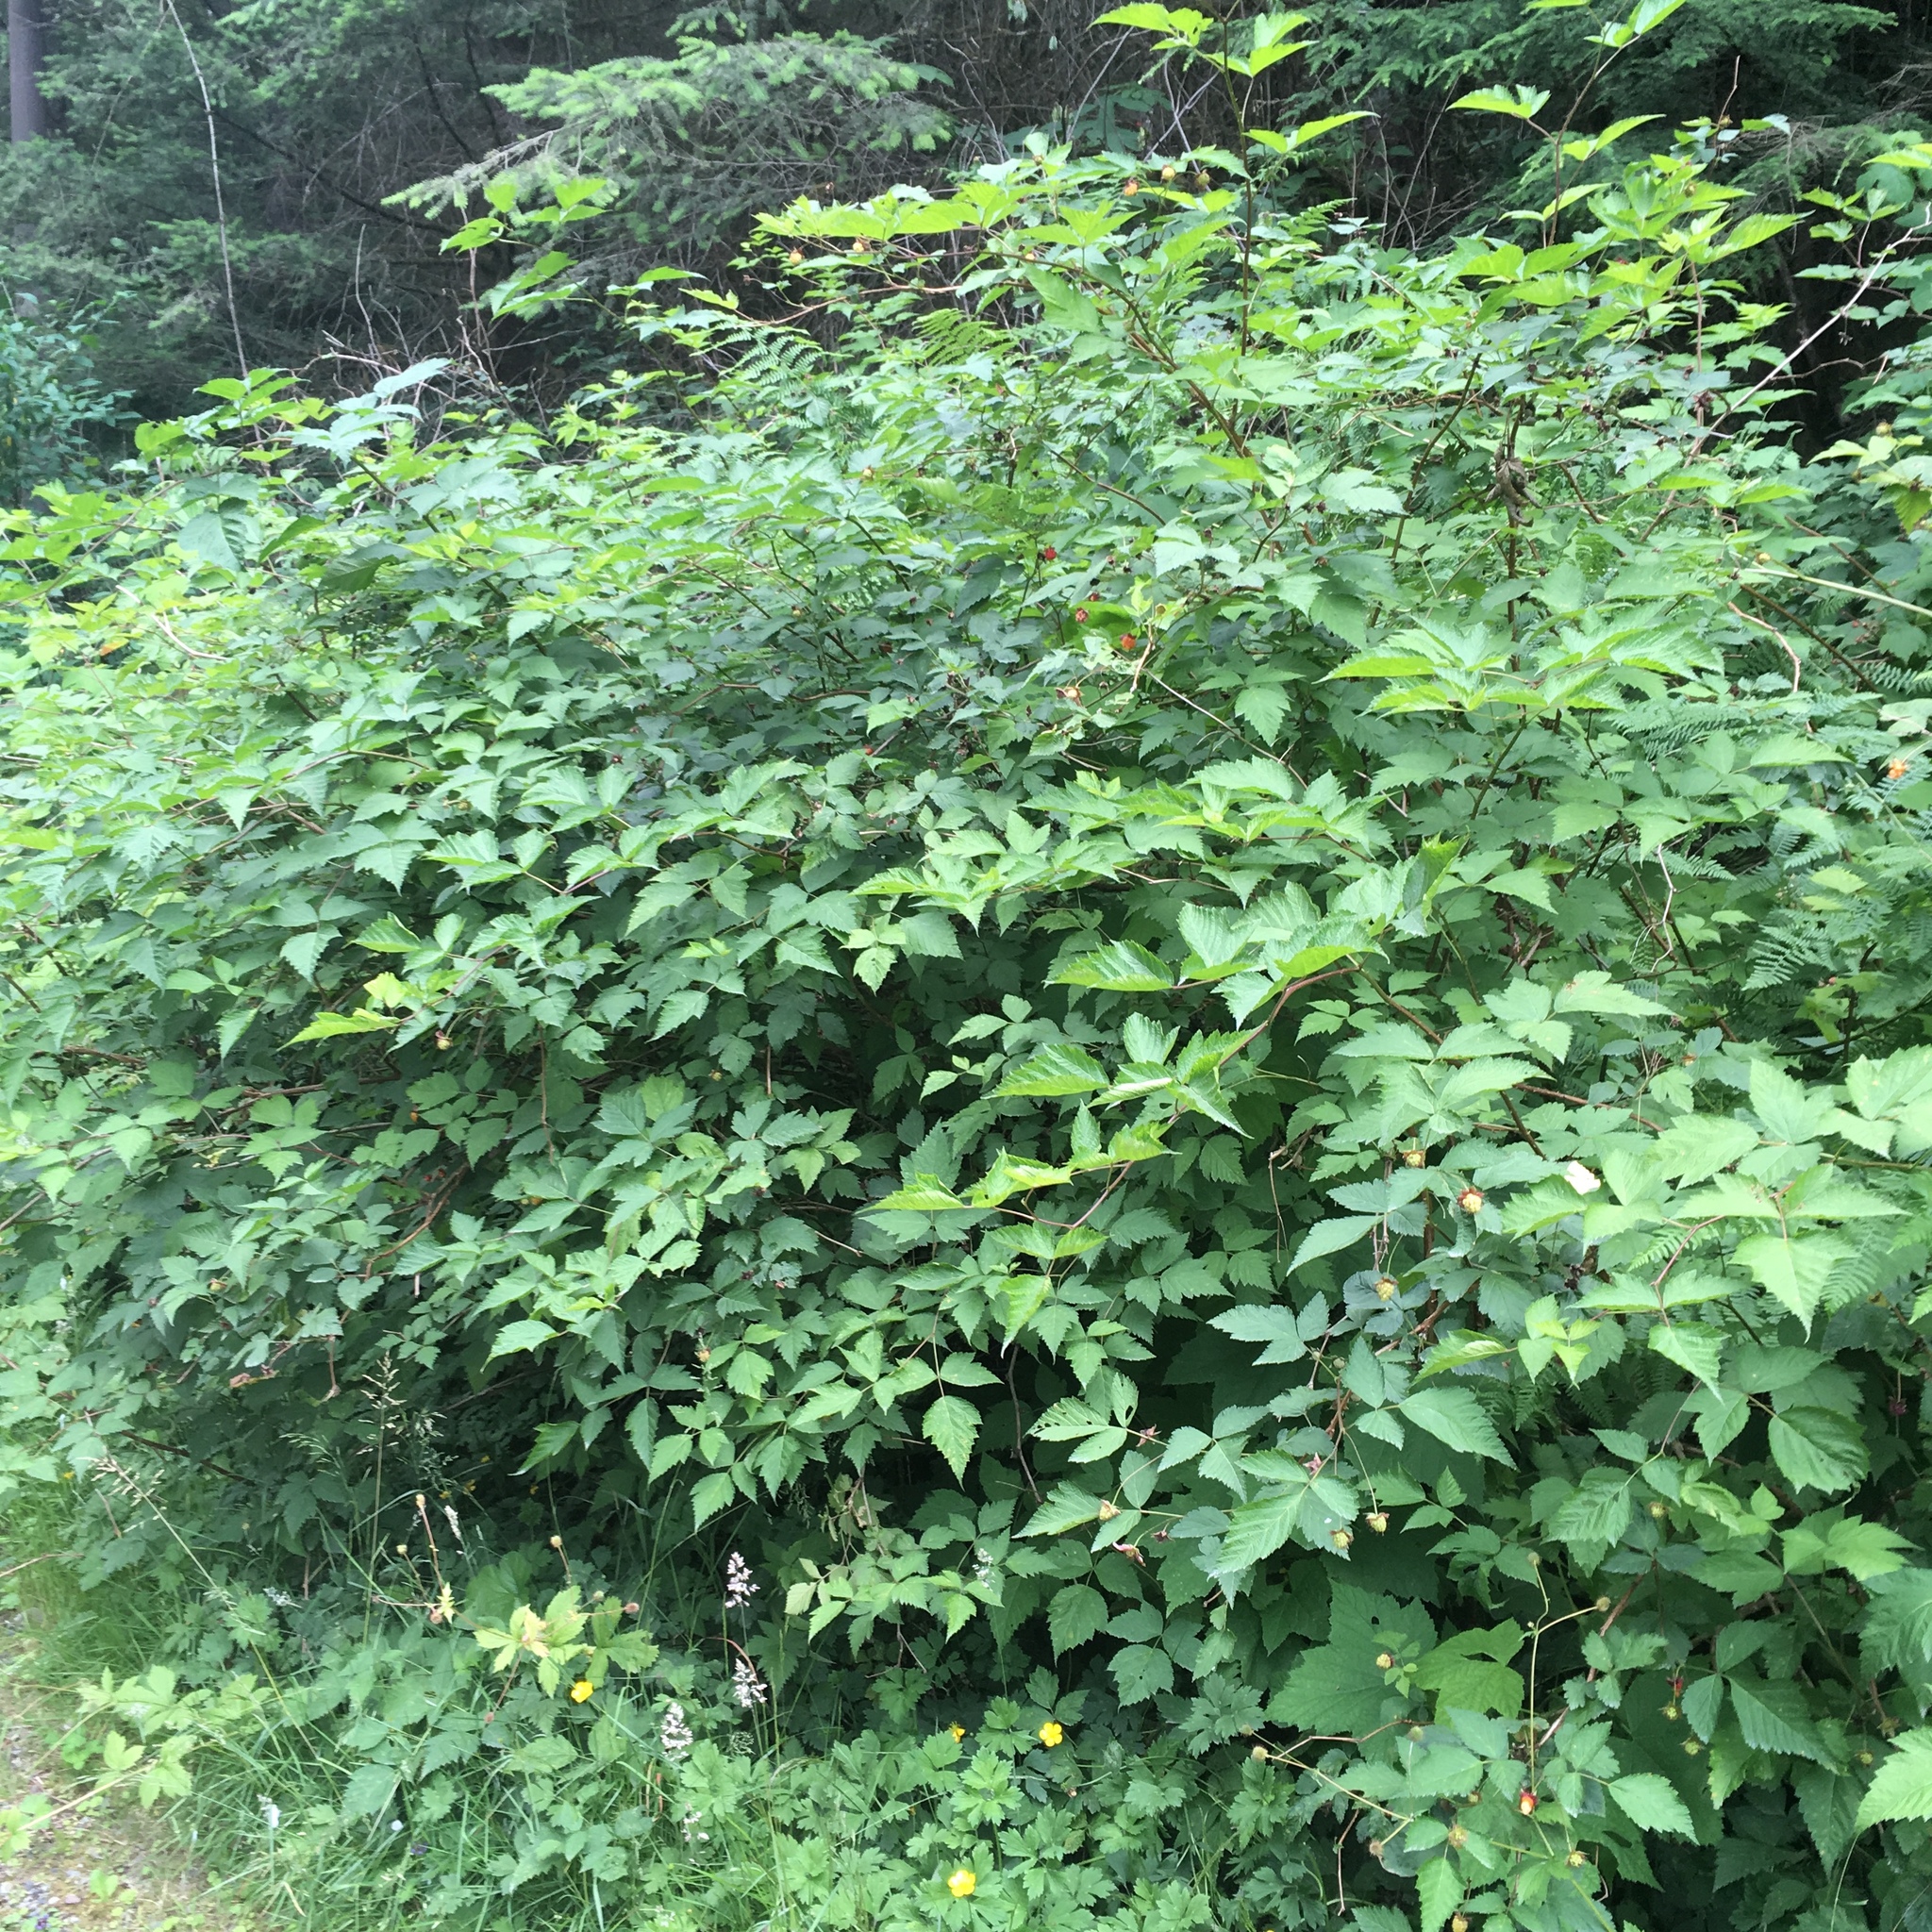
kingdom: Plantae
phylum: Tracheophyta
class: Magnoliopsida
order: Rosales
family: Rosaceae
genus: Rubus
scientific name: Rubus spectabilis
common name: Salmonberry
